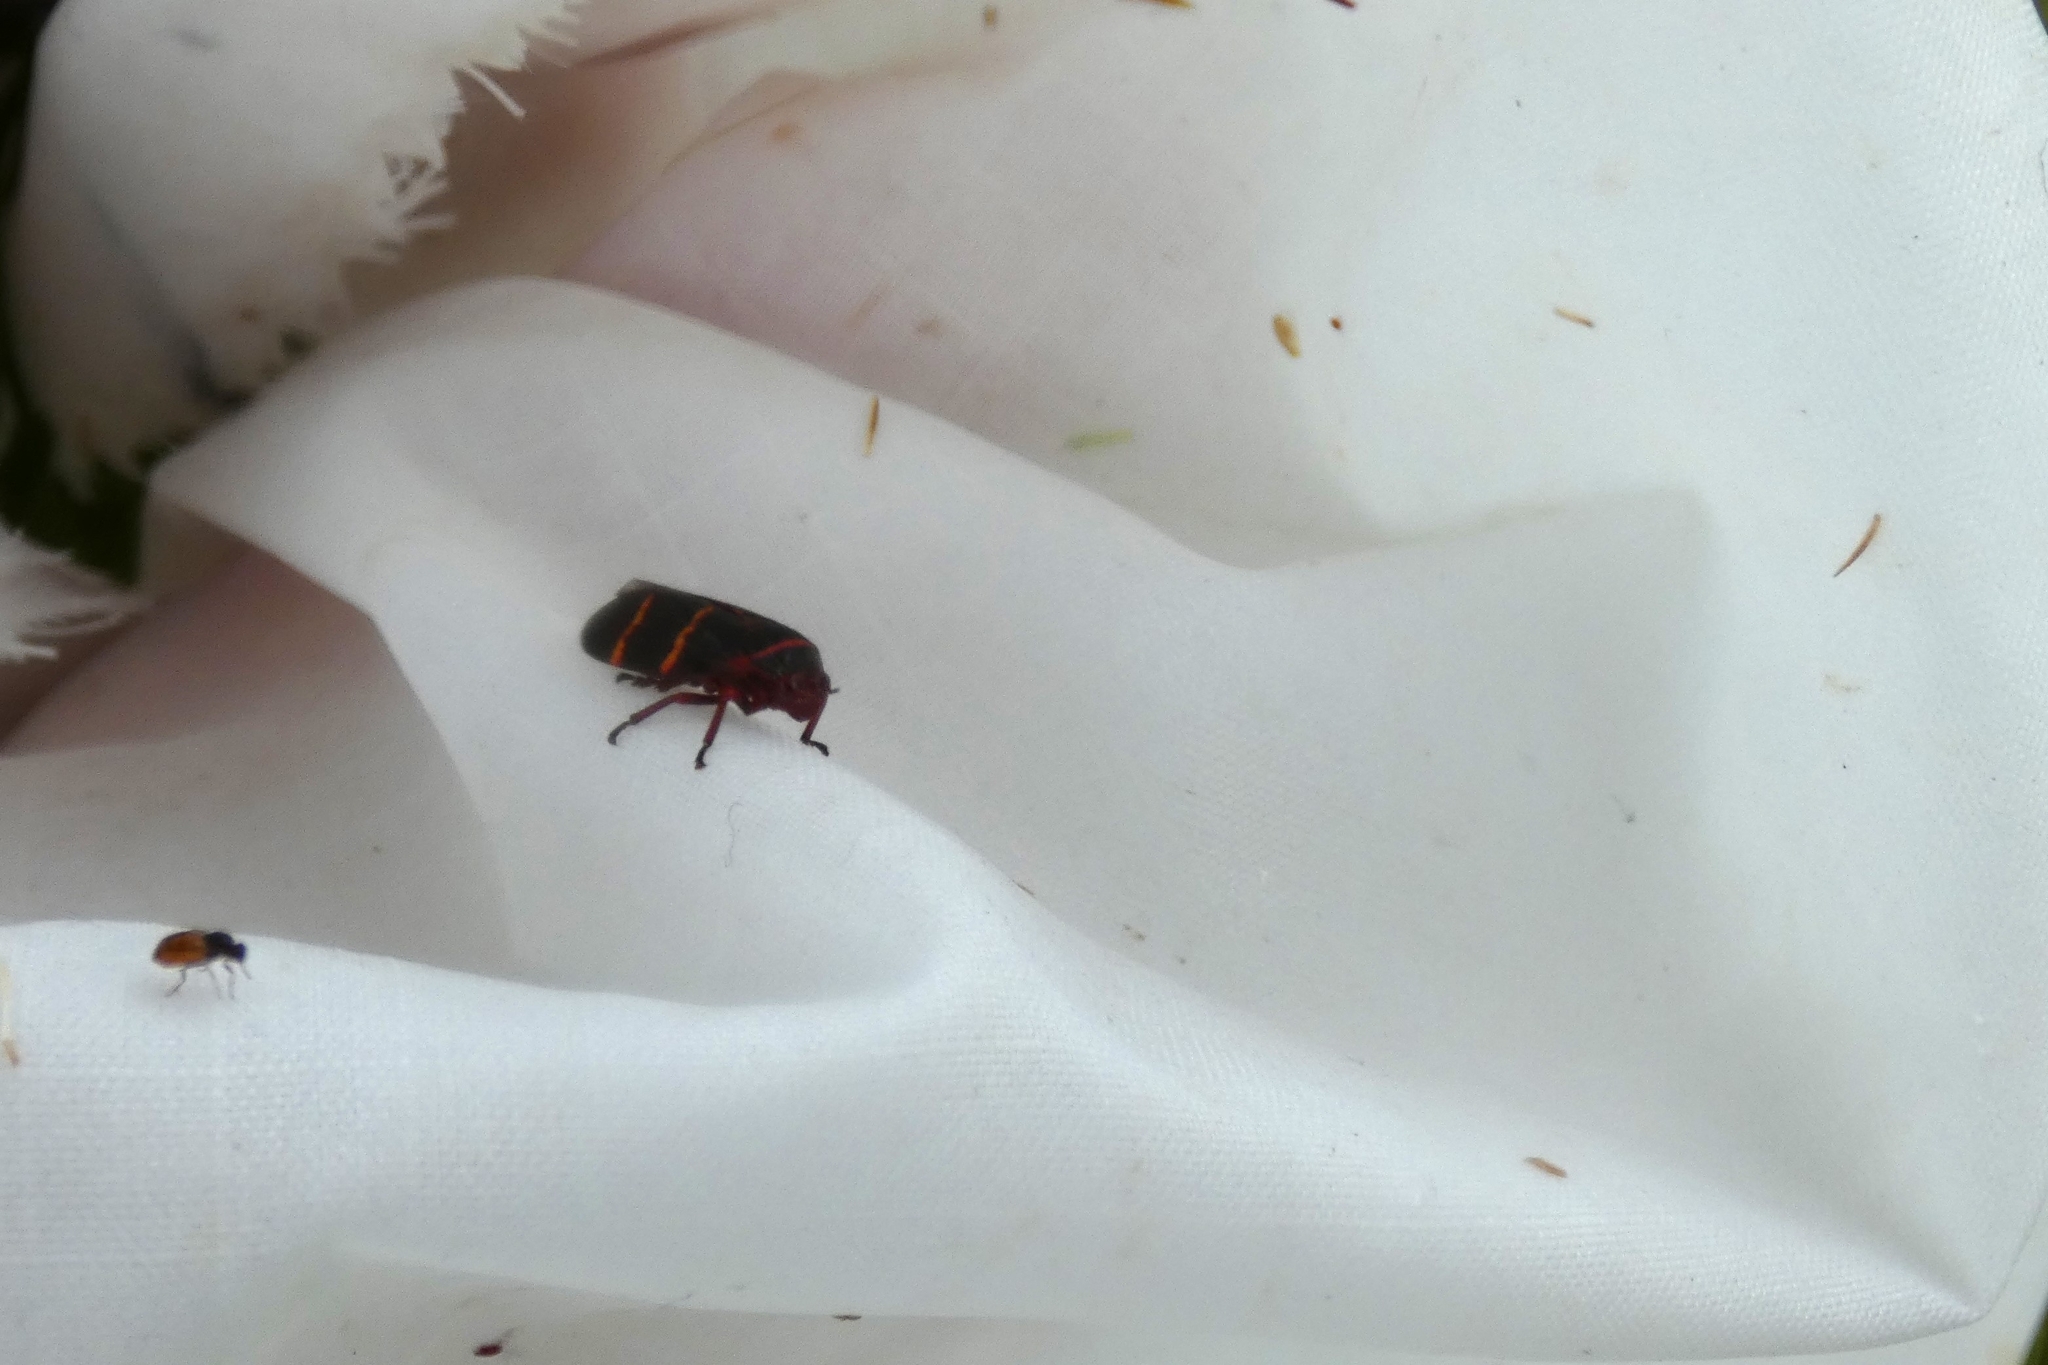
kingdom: Animalia
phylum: Arthropoda
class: Insecta
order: Hemiptera
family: Cercopidae
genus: Prosapia
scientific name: Prosapia bicincta
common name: Twolined spittlebug
